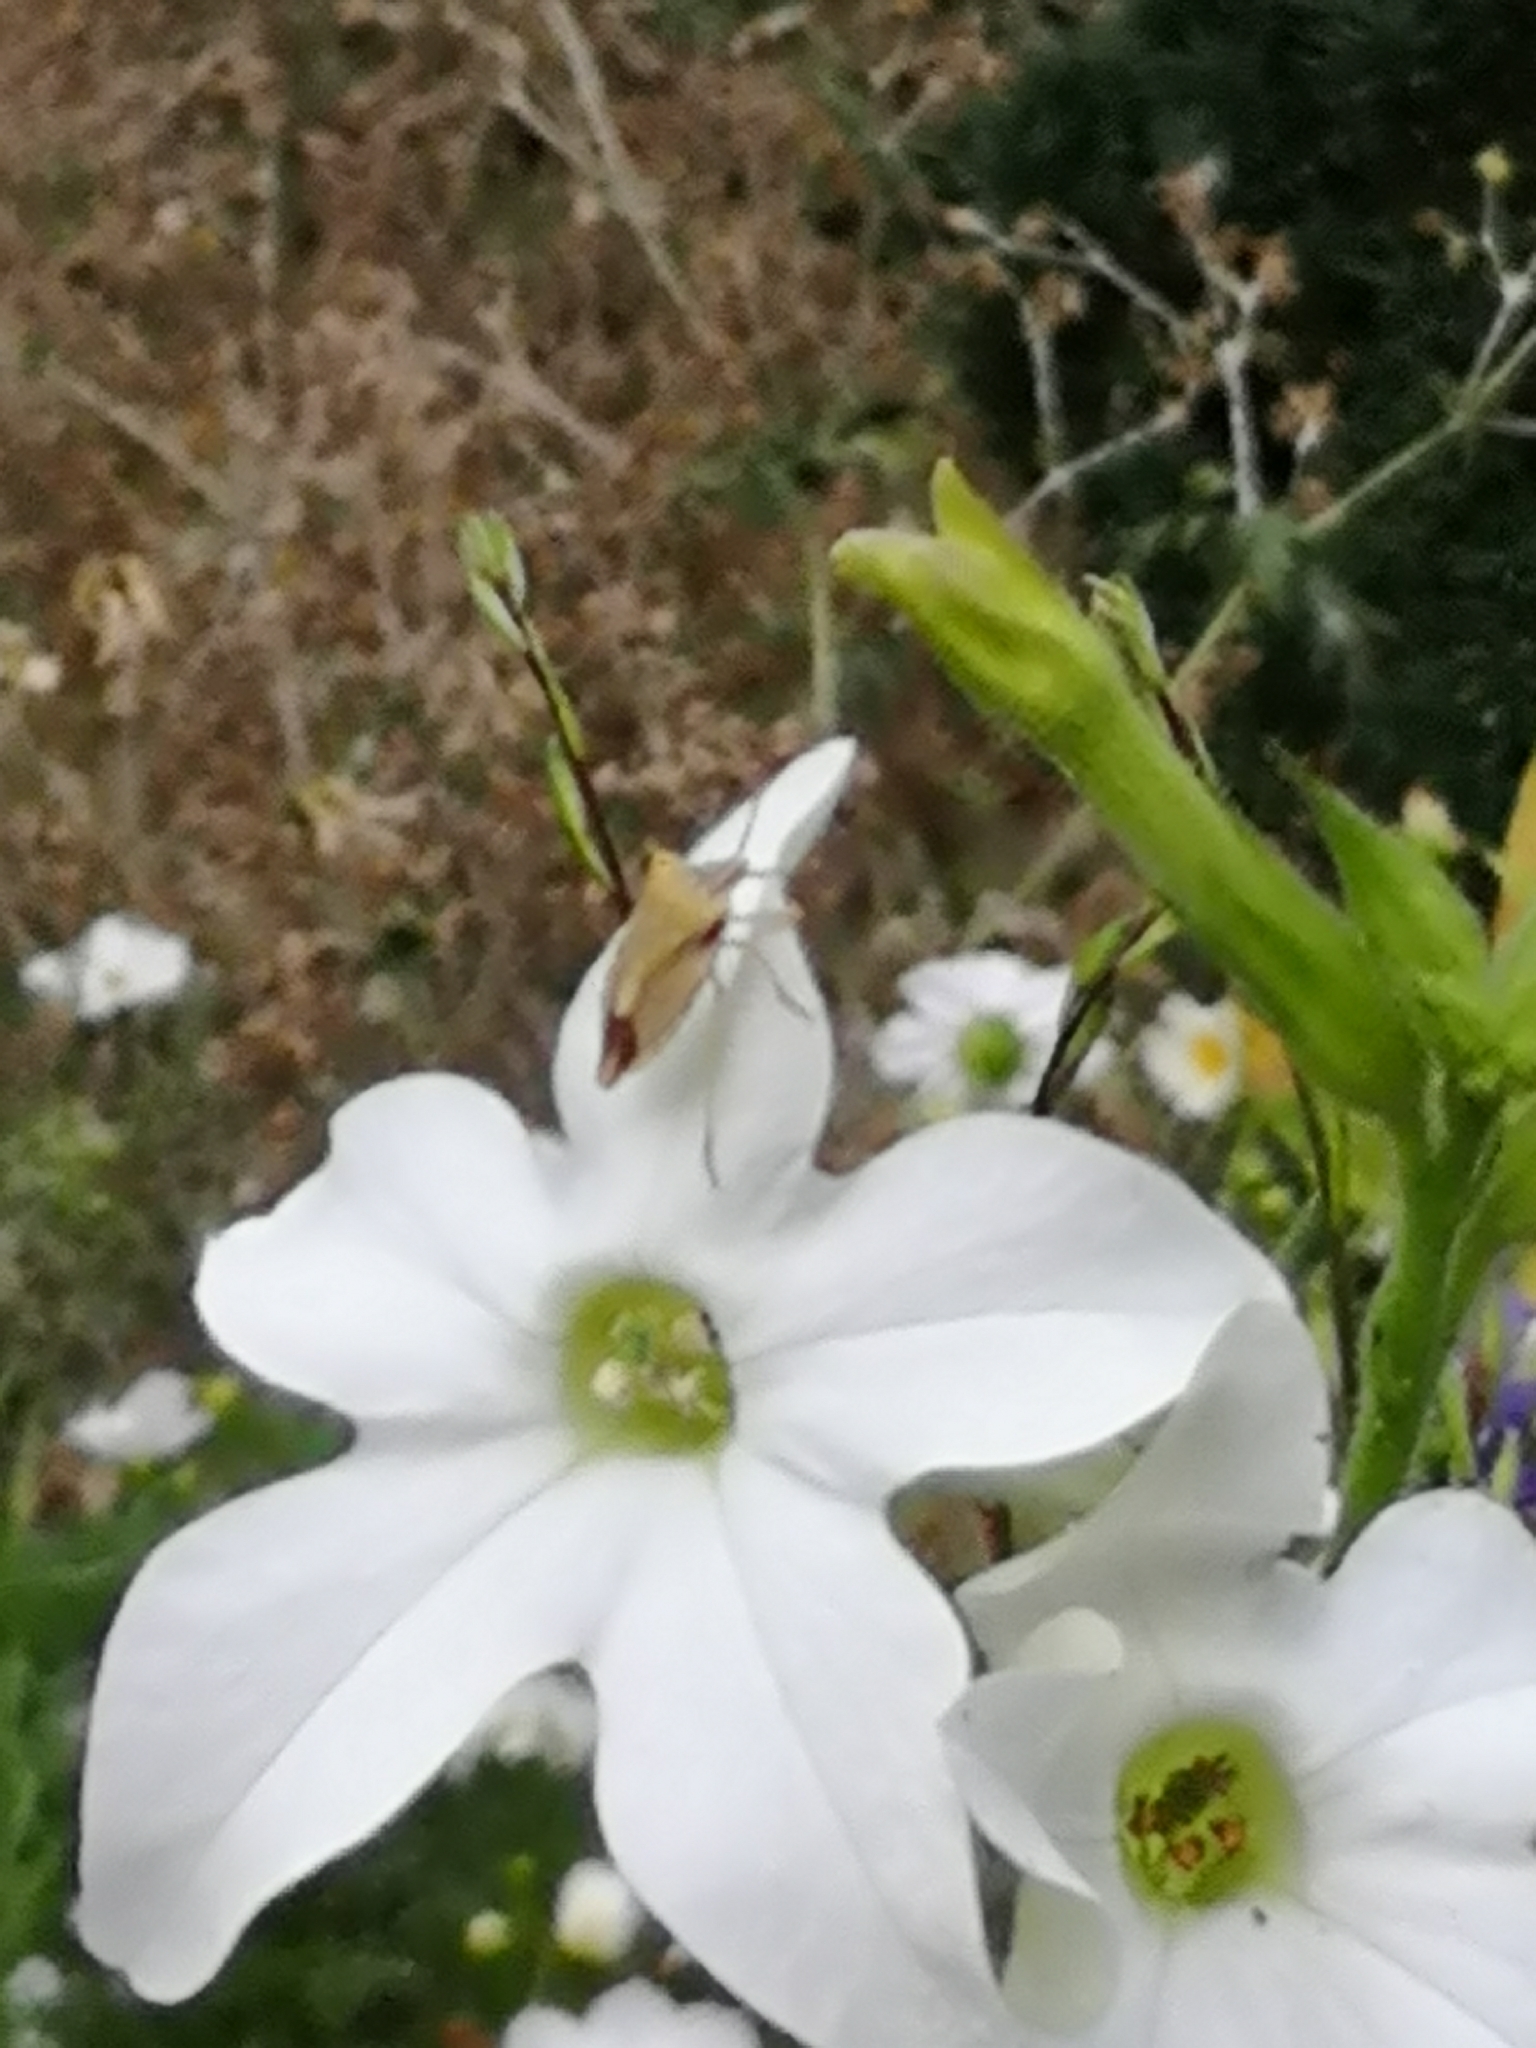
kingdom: Animalia
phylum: Arthropoda
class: Insecta
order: Hemiptera
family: Pentatomidae
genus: Carpocoris
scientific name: Carpocoris fuscispinus
